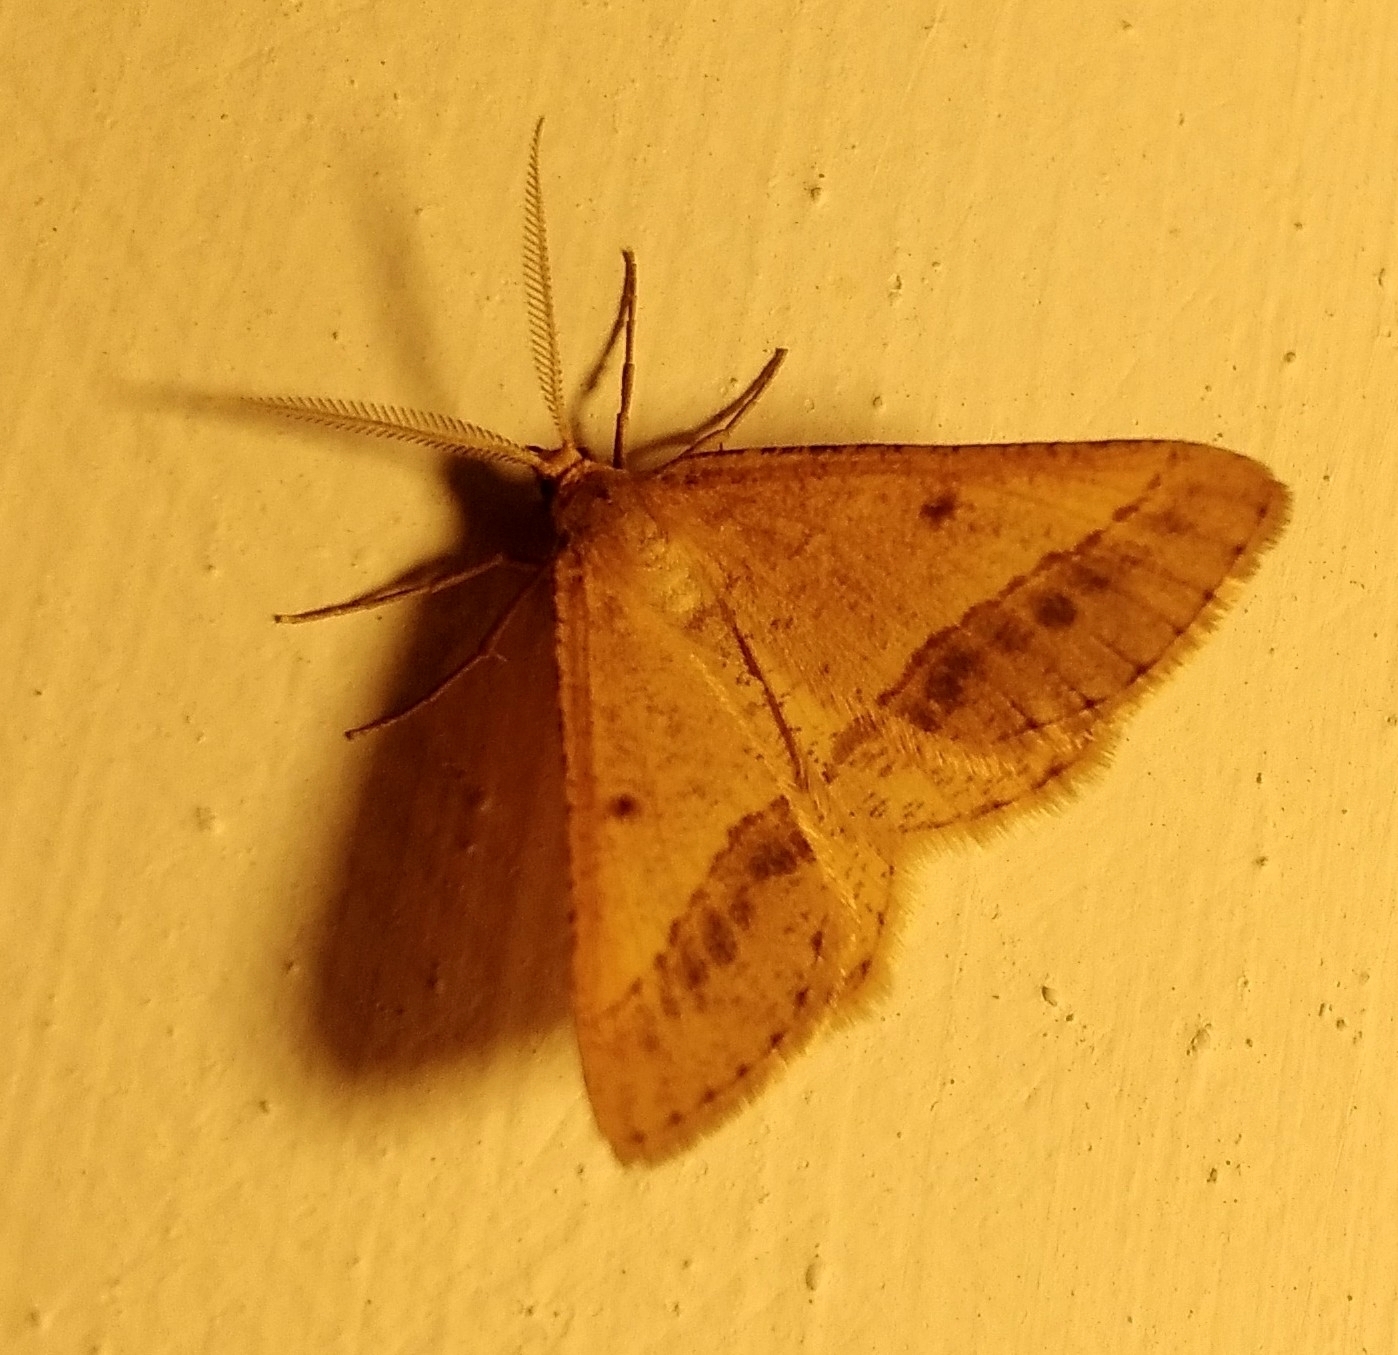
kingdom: Animalia
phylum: Arthropoda
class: Insecta
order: Lepidoptera
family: Geometridae
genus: Tephrina
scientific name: Tephrina arenacearia
